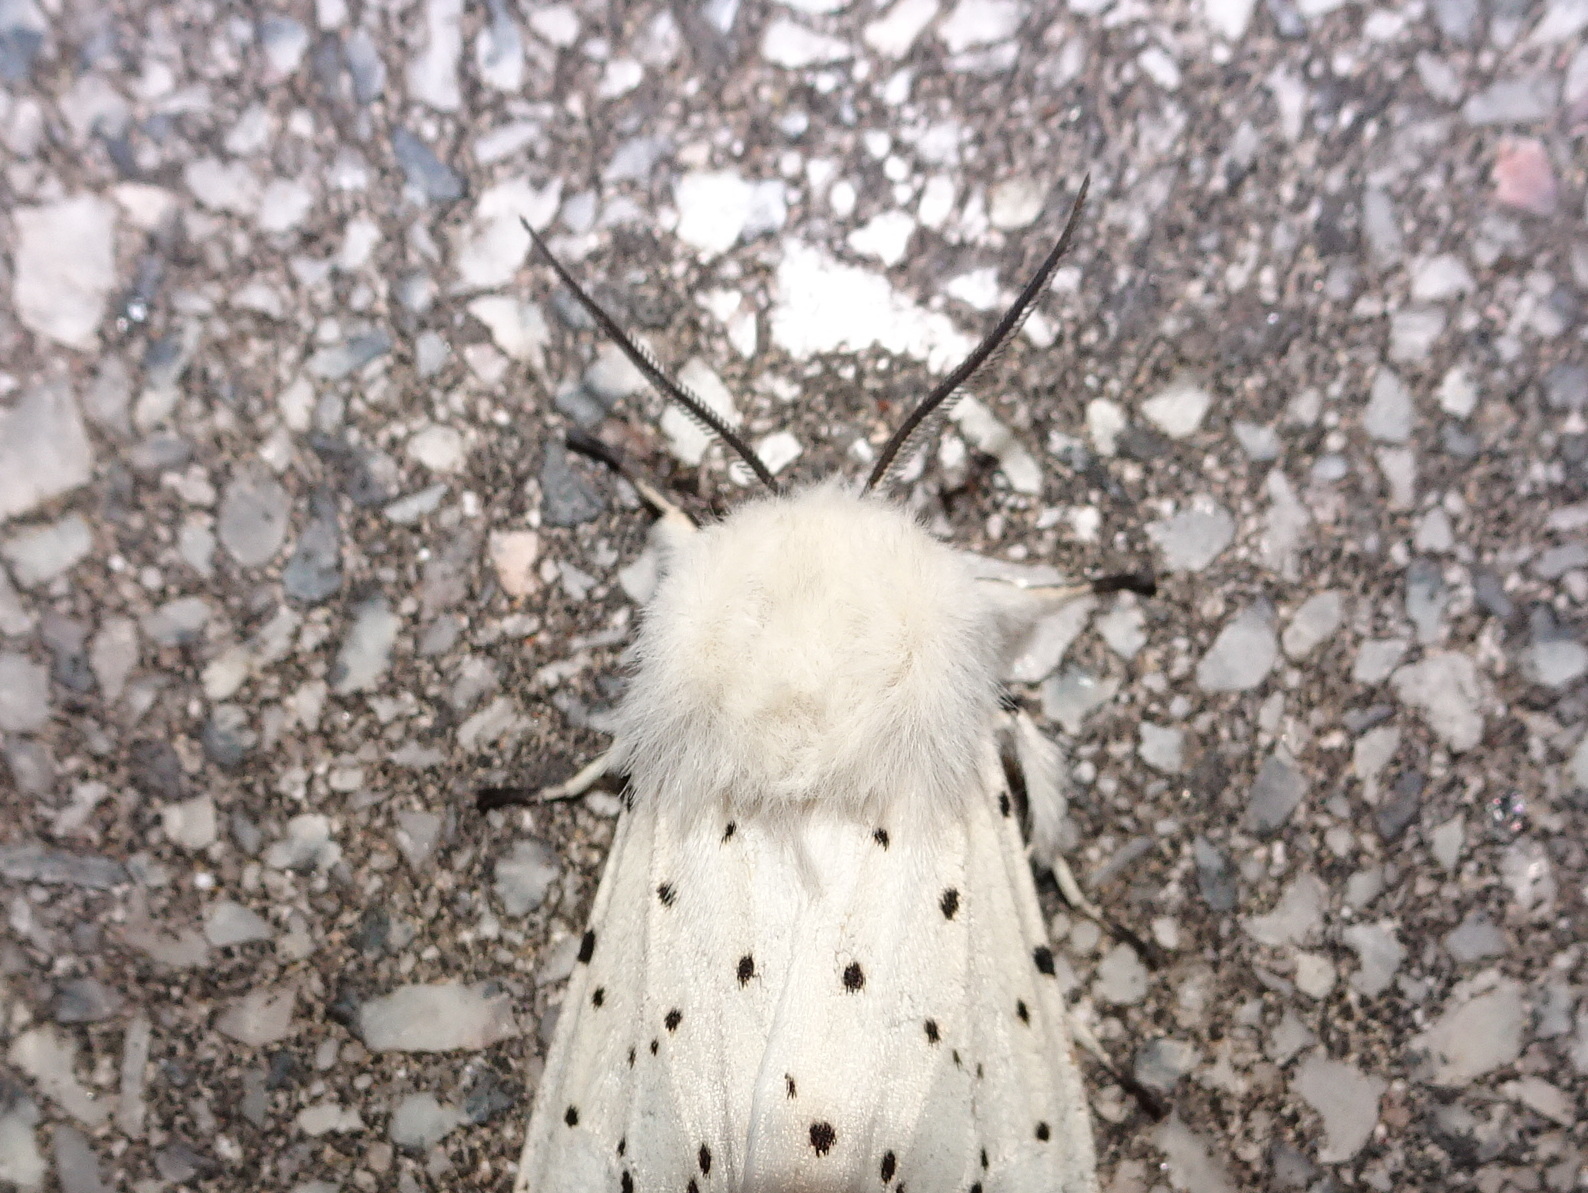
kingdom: Animalia
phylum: Arthropoda
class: Insecta
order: Lepidoptera
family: Erebidae
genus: Spilosoma
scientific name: Spilosoma lubricipeda
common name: White ermine
